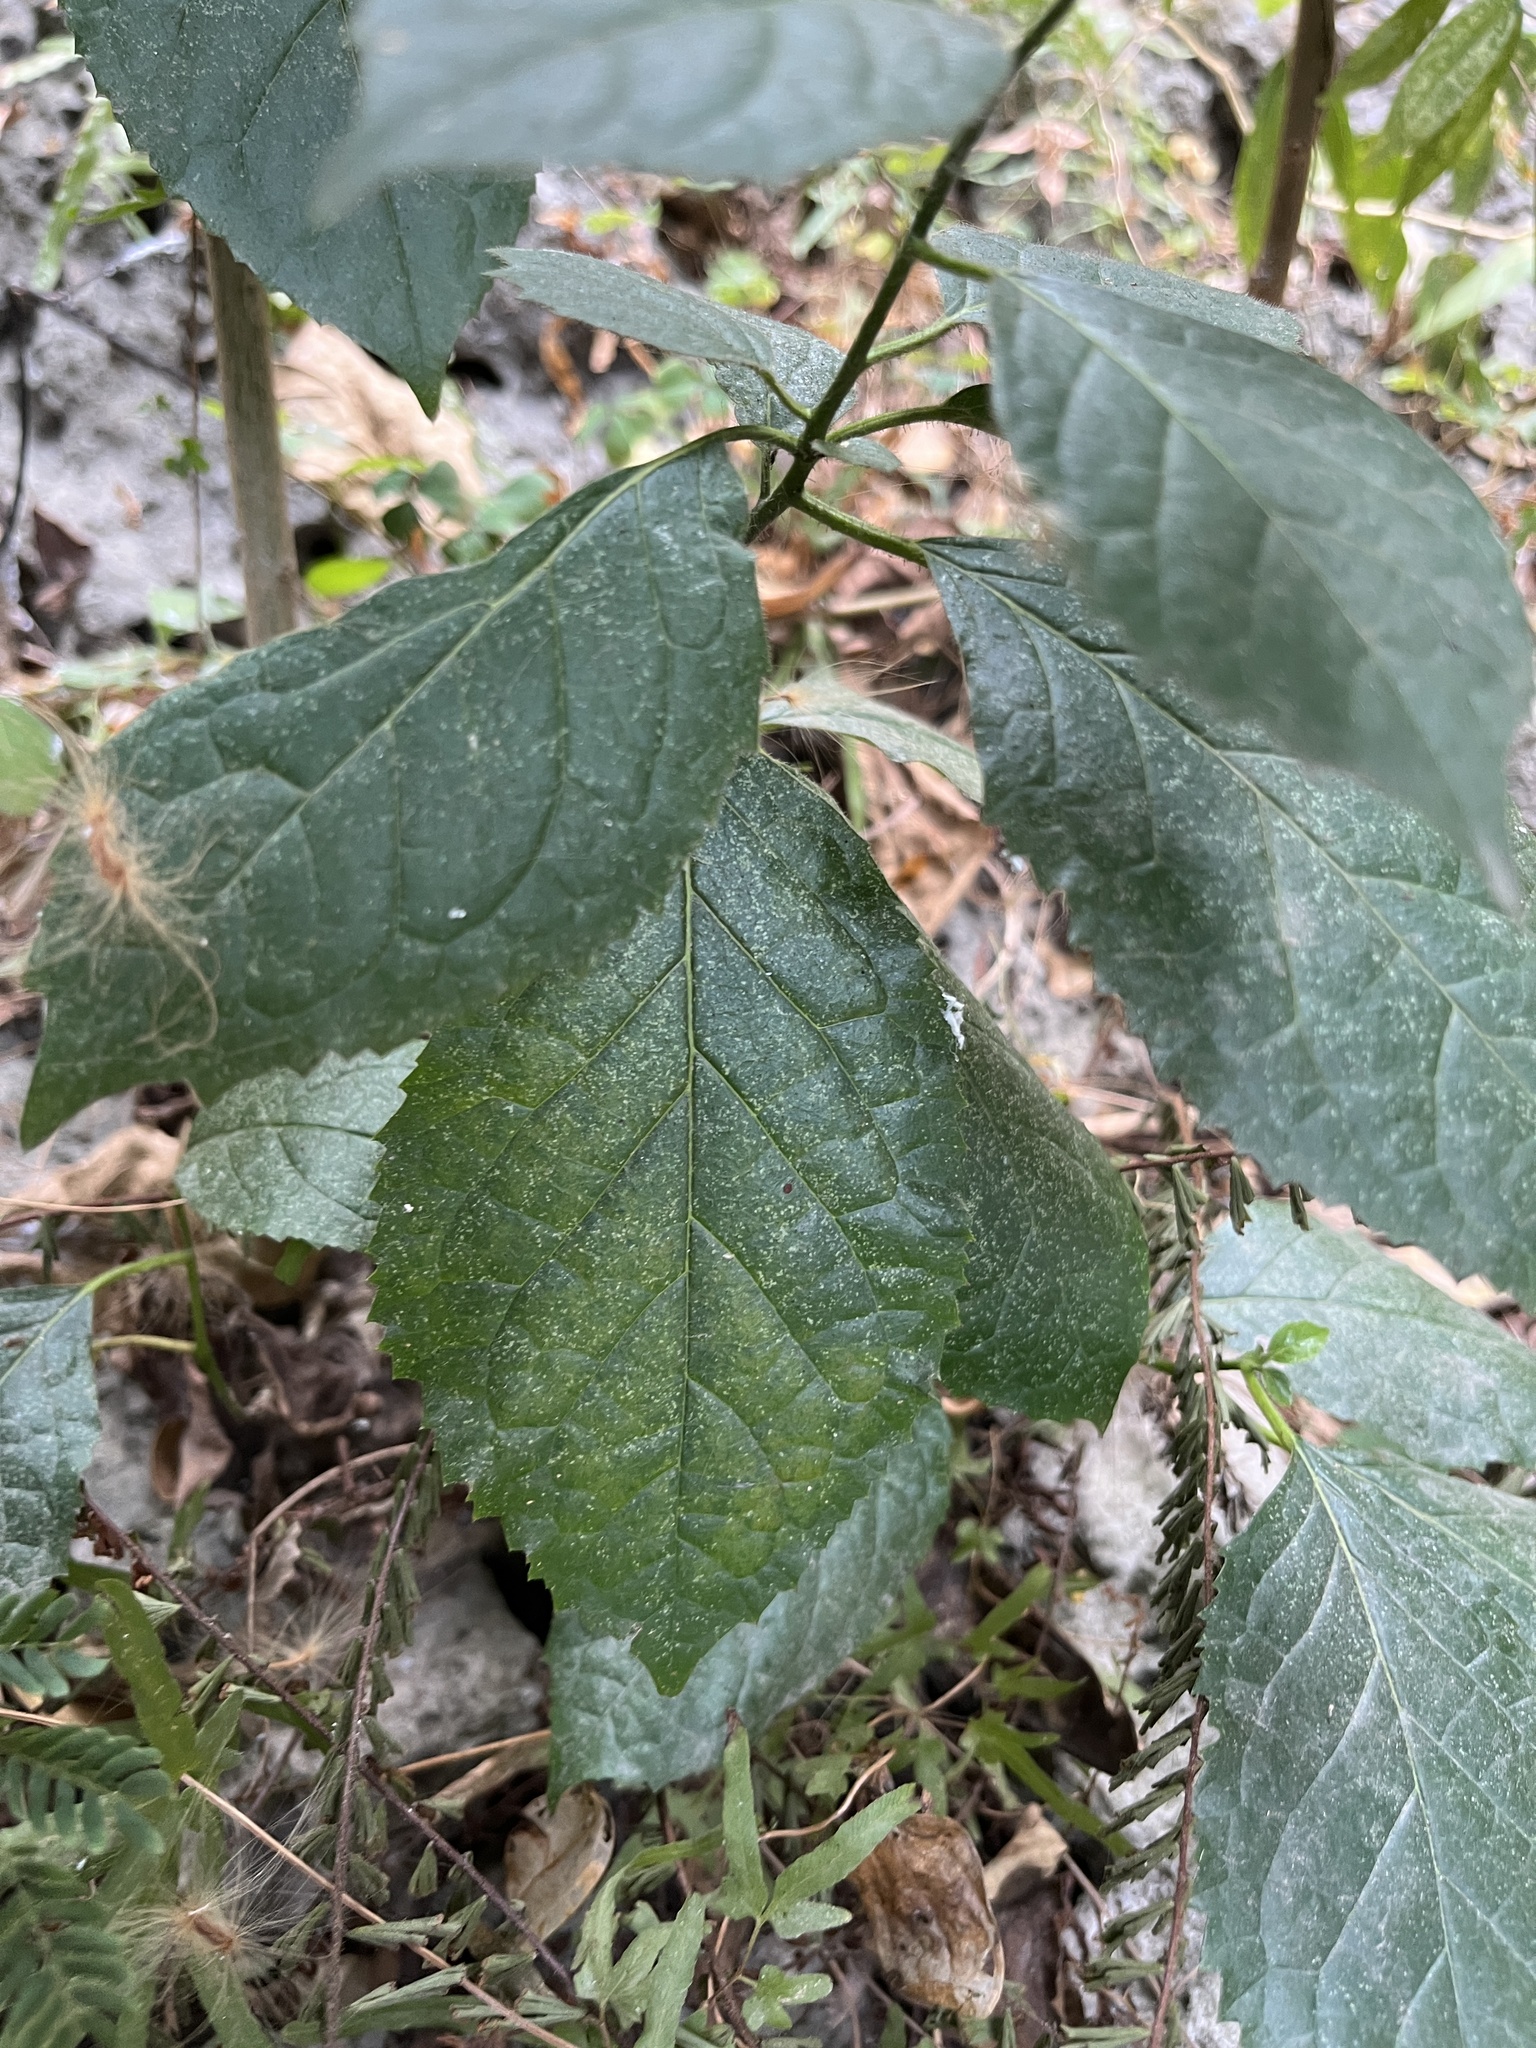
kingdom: Plantae
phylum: Tracheophyta
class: Magnoliopsida
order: Boraginales
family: Ehretiaceae
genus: Ehretia
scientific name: Ehretia resinosa
